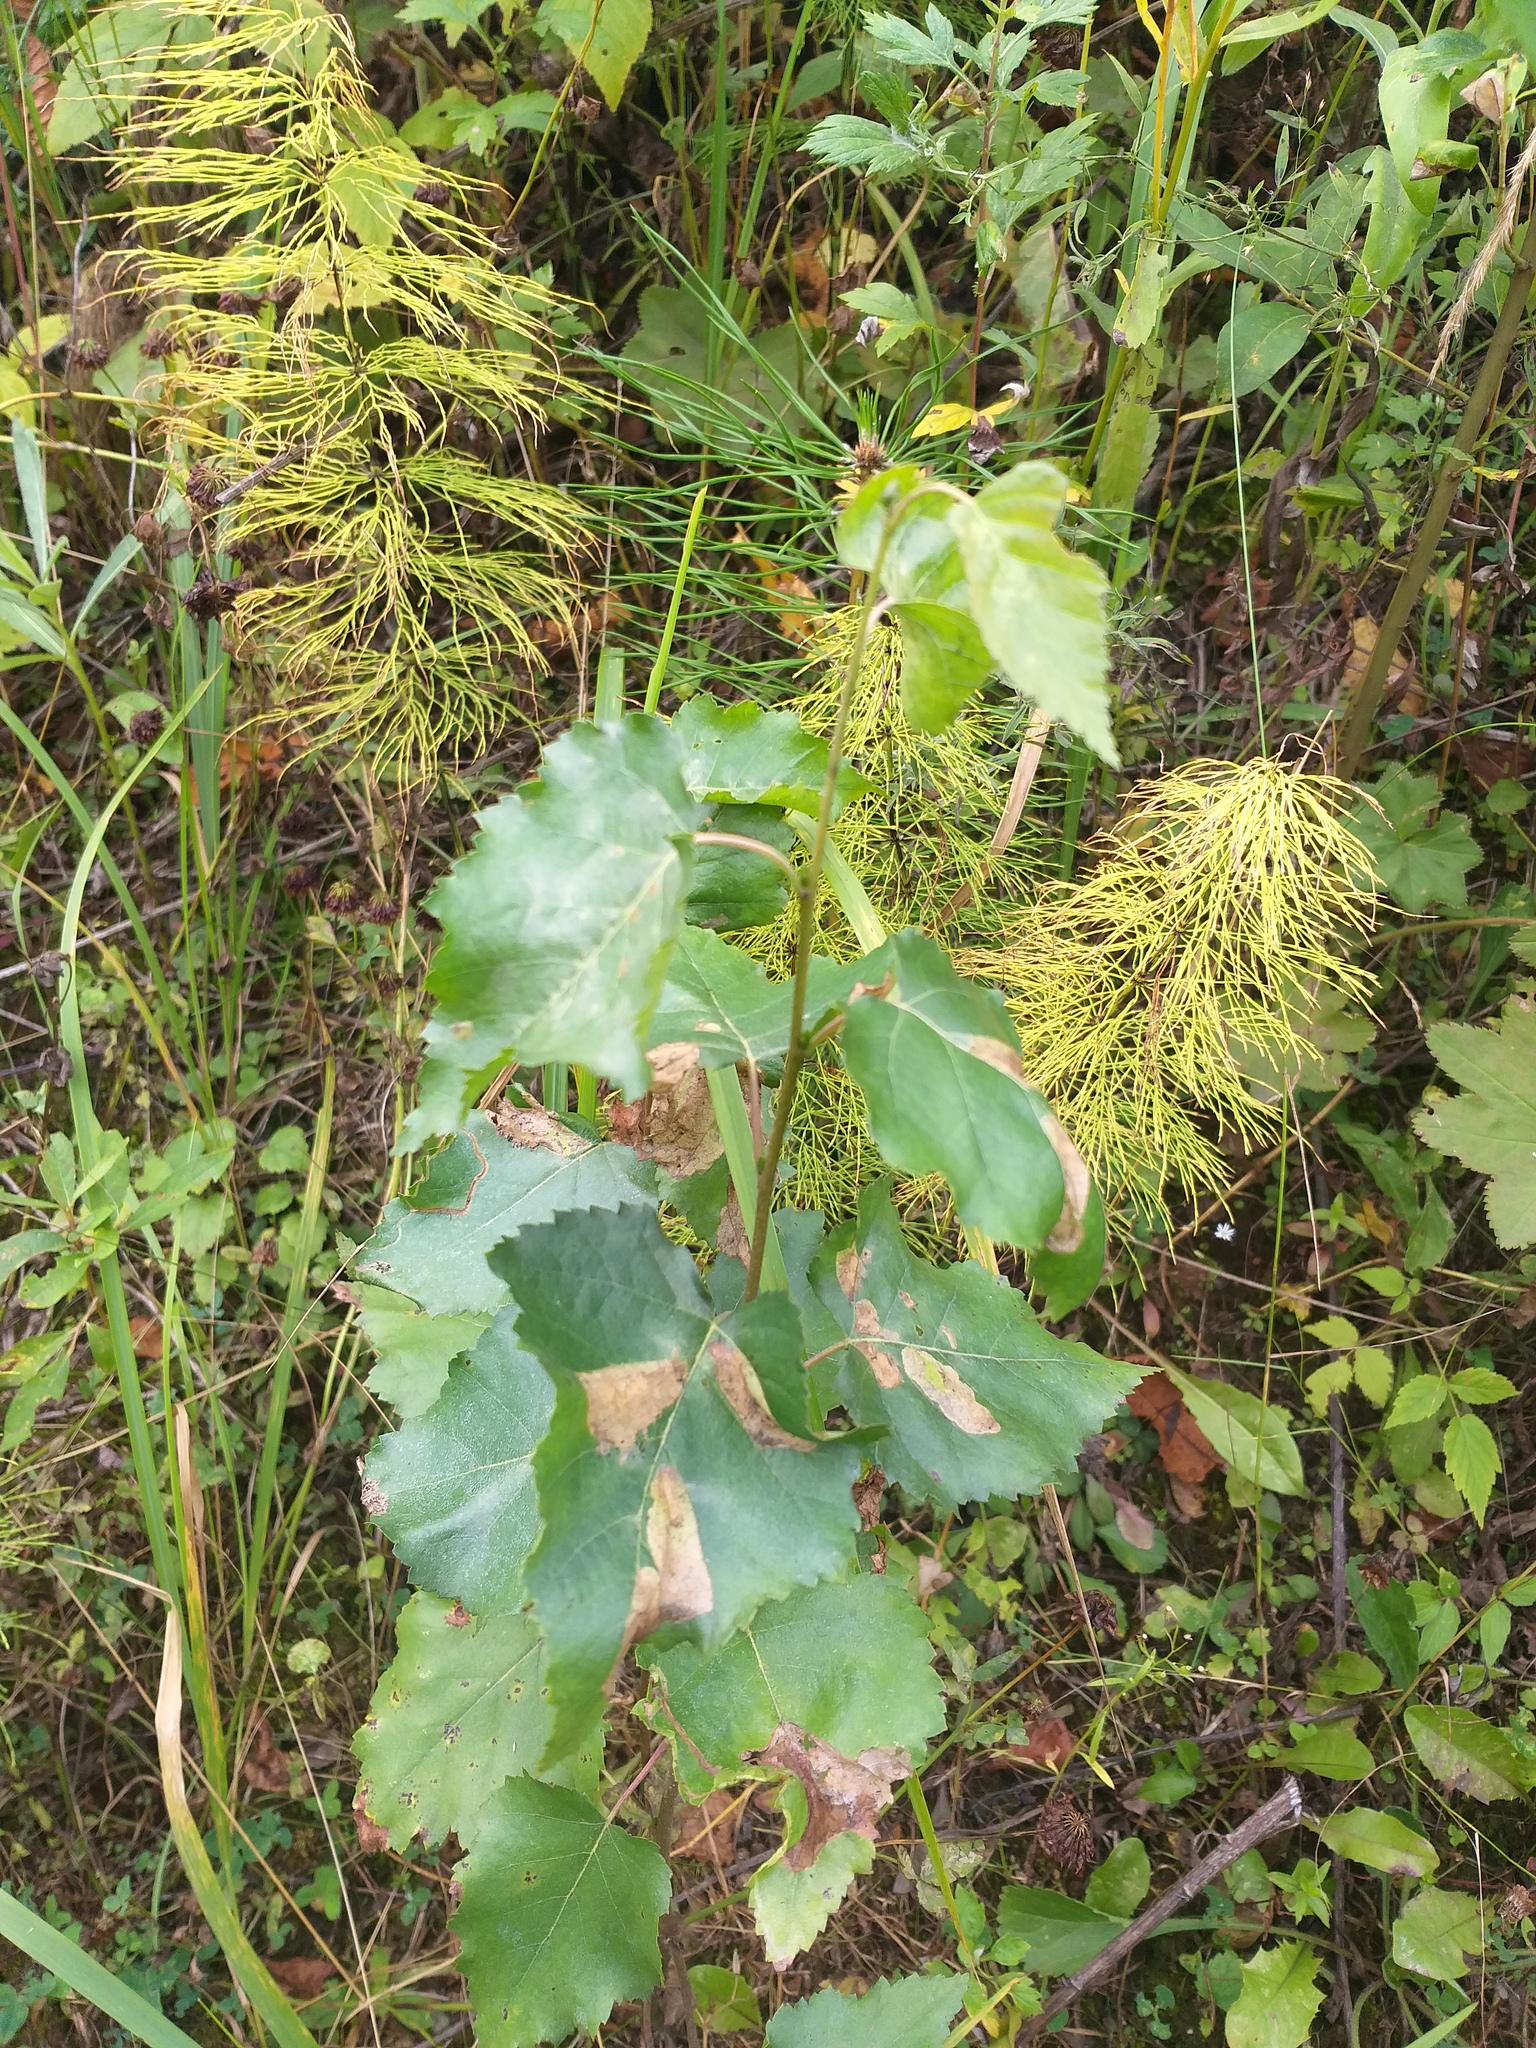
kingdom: Plantae
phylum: Tracheophyta
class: Magnoliopsida
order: Fagales
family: Betulaceae
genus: Betula
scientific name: Betula pubescens
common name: Downy birch
